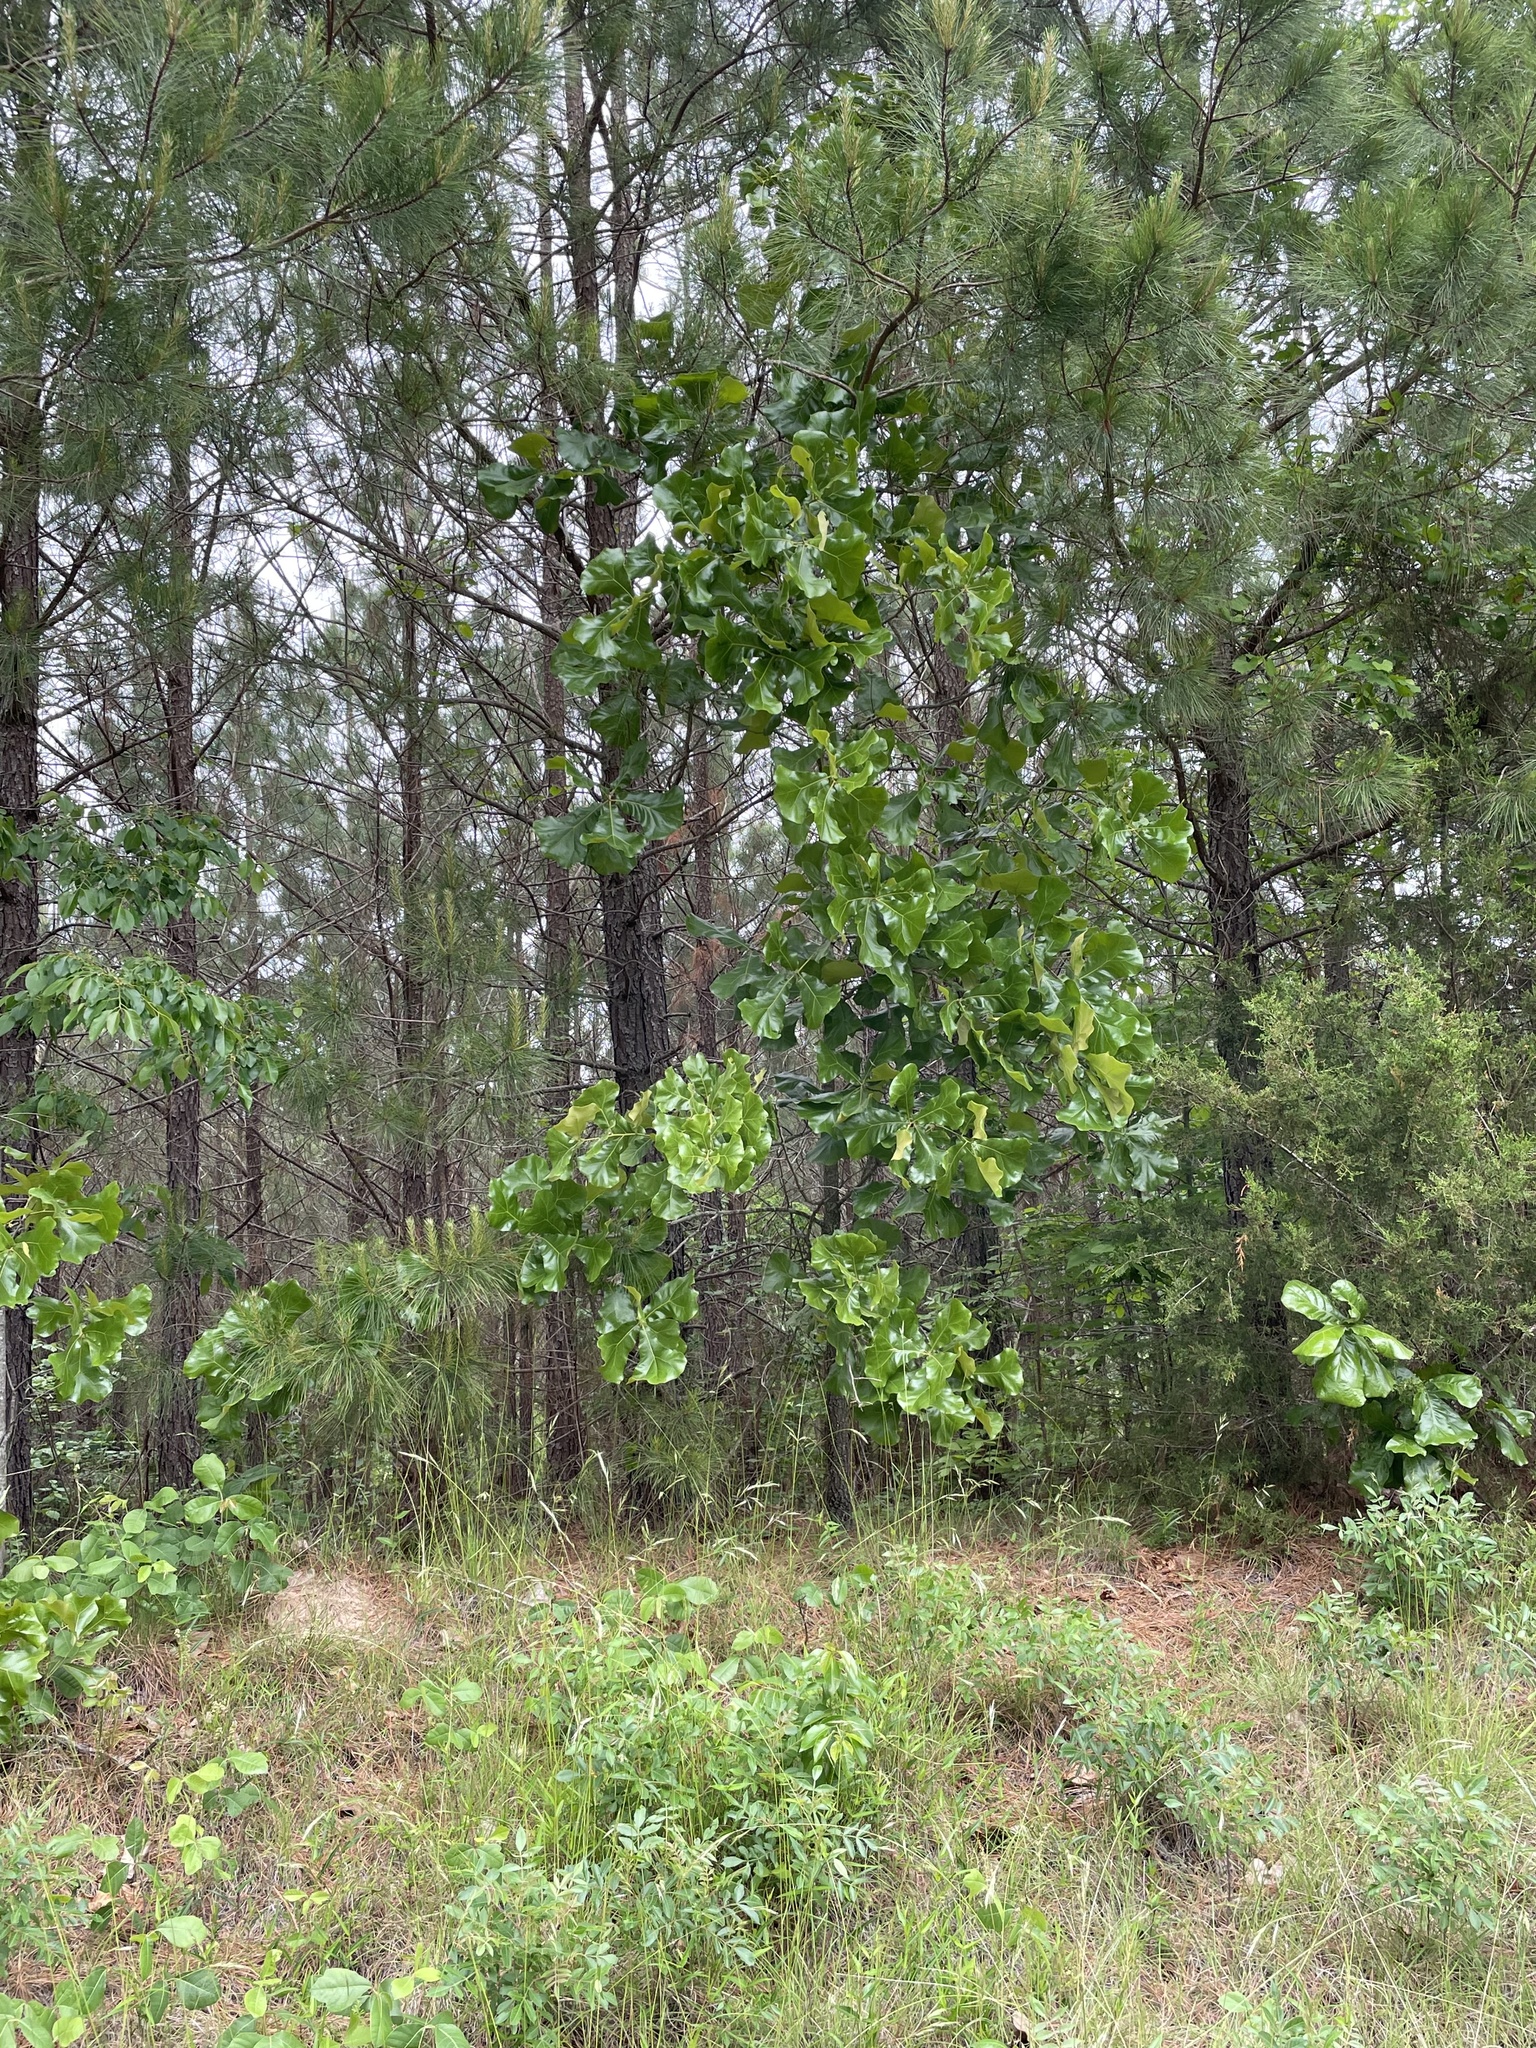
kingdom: Plantae
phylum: Tracheophyta
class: Magnoliopsida
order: Fagales
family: Fagaceae
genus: Quercus
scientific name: Quercus marilandica
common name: Blackjack oak
